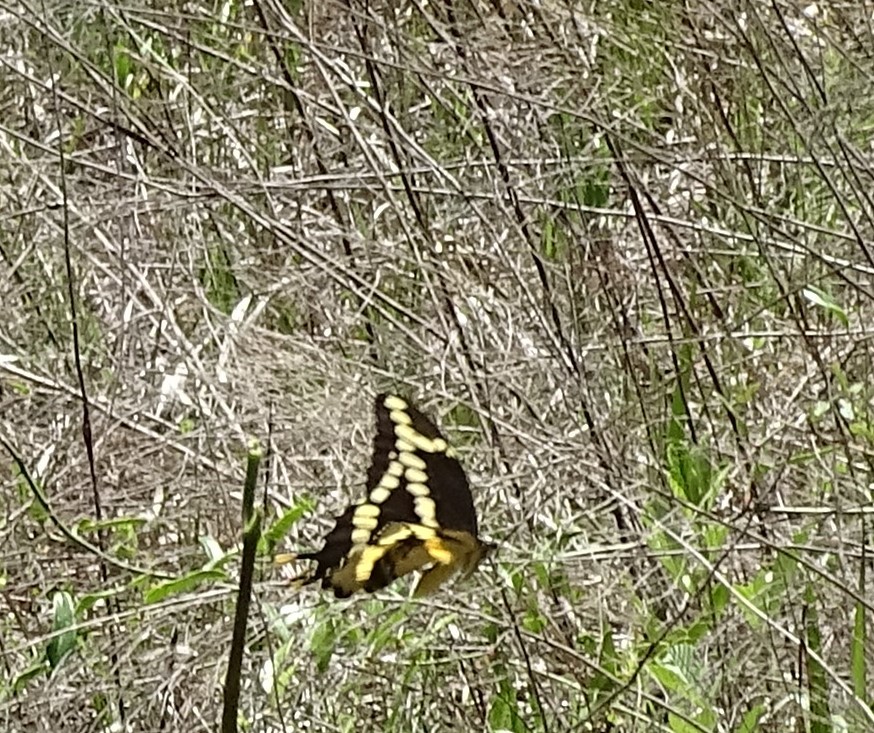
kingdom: Animalia
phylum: Arthropoda
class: Insecta
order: Lepidoptera
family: Papilionidae
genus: Papilio
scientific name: Papilio cresphontes
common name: Giant swallowtail
